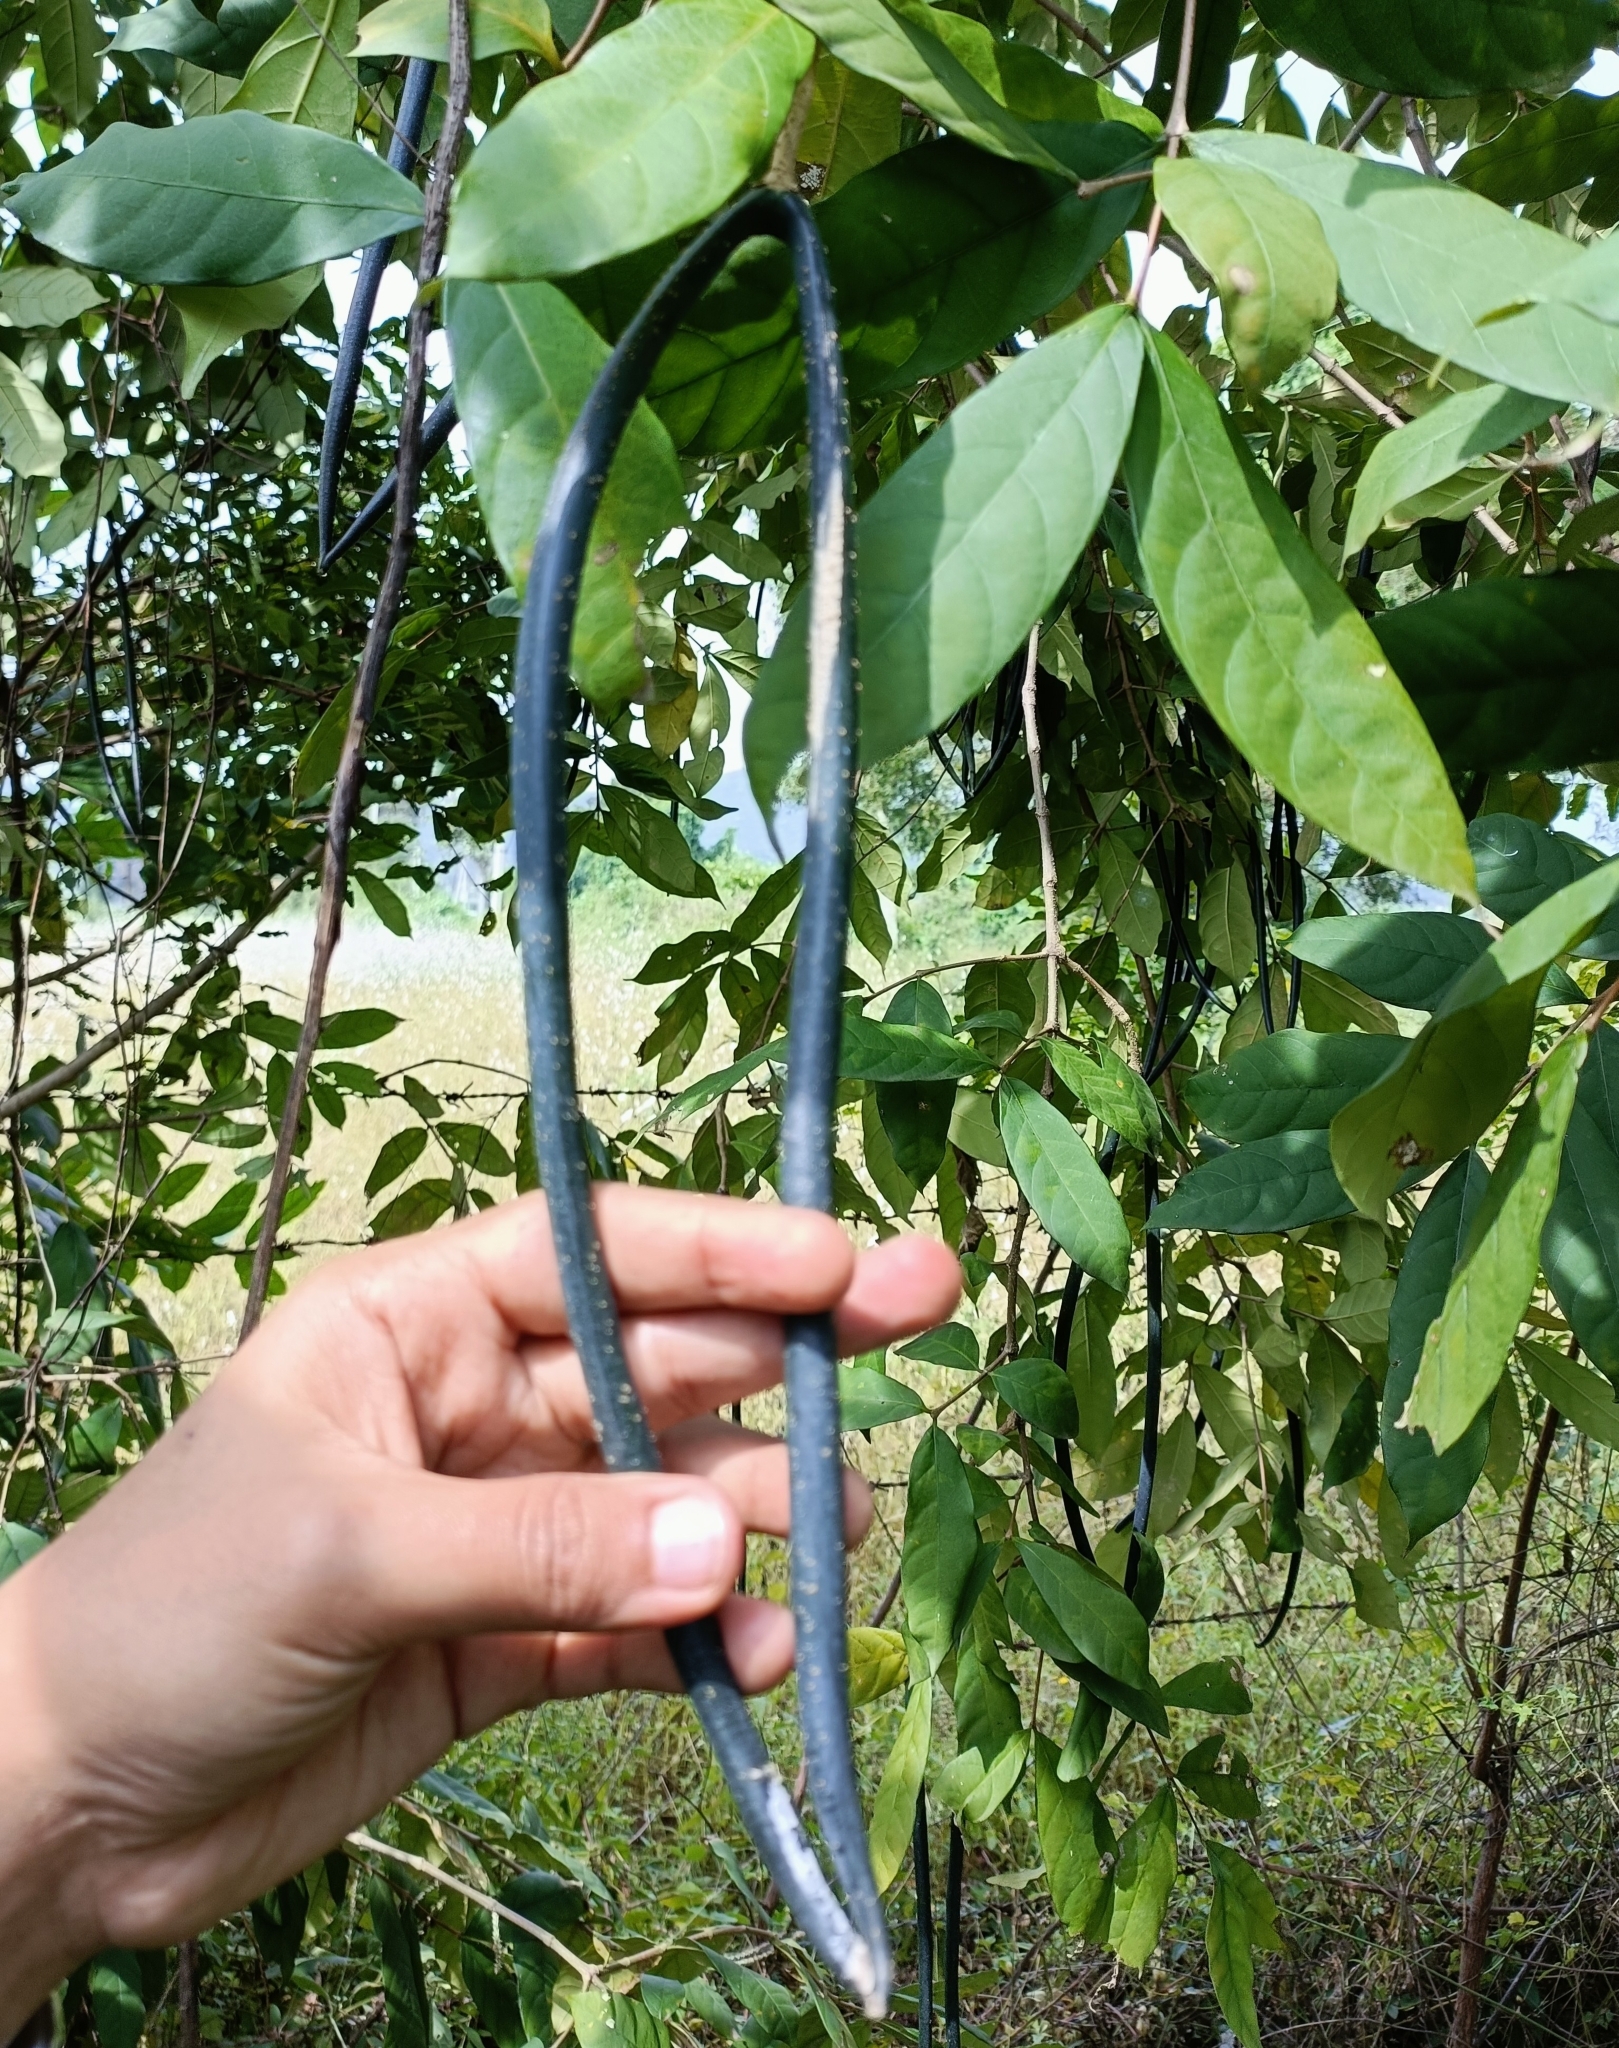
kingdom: Plantae
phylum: Tracheophyta
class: Magnoliopsida
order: Gentianales
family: Apocynaceae
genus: Wrightia
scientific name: Wrightia tinctoria
